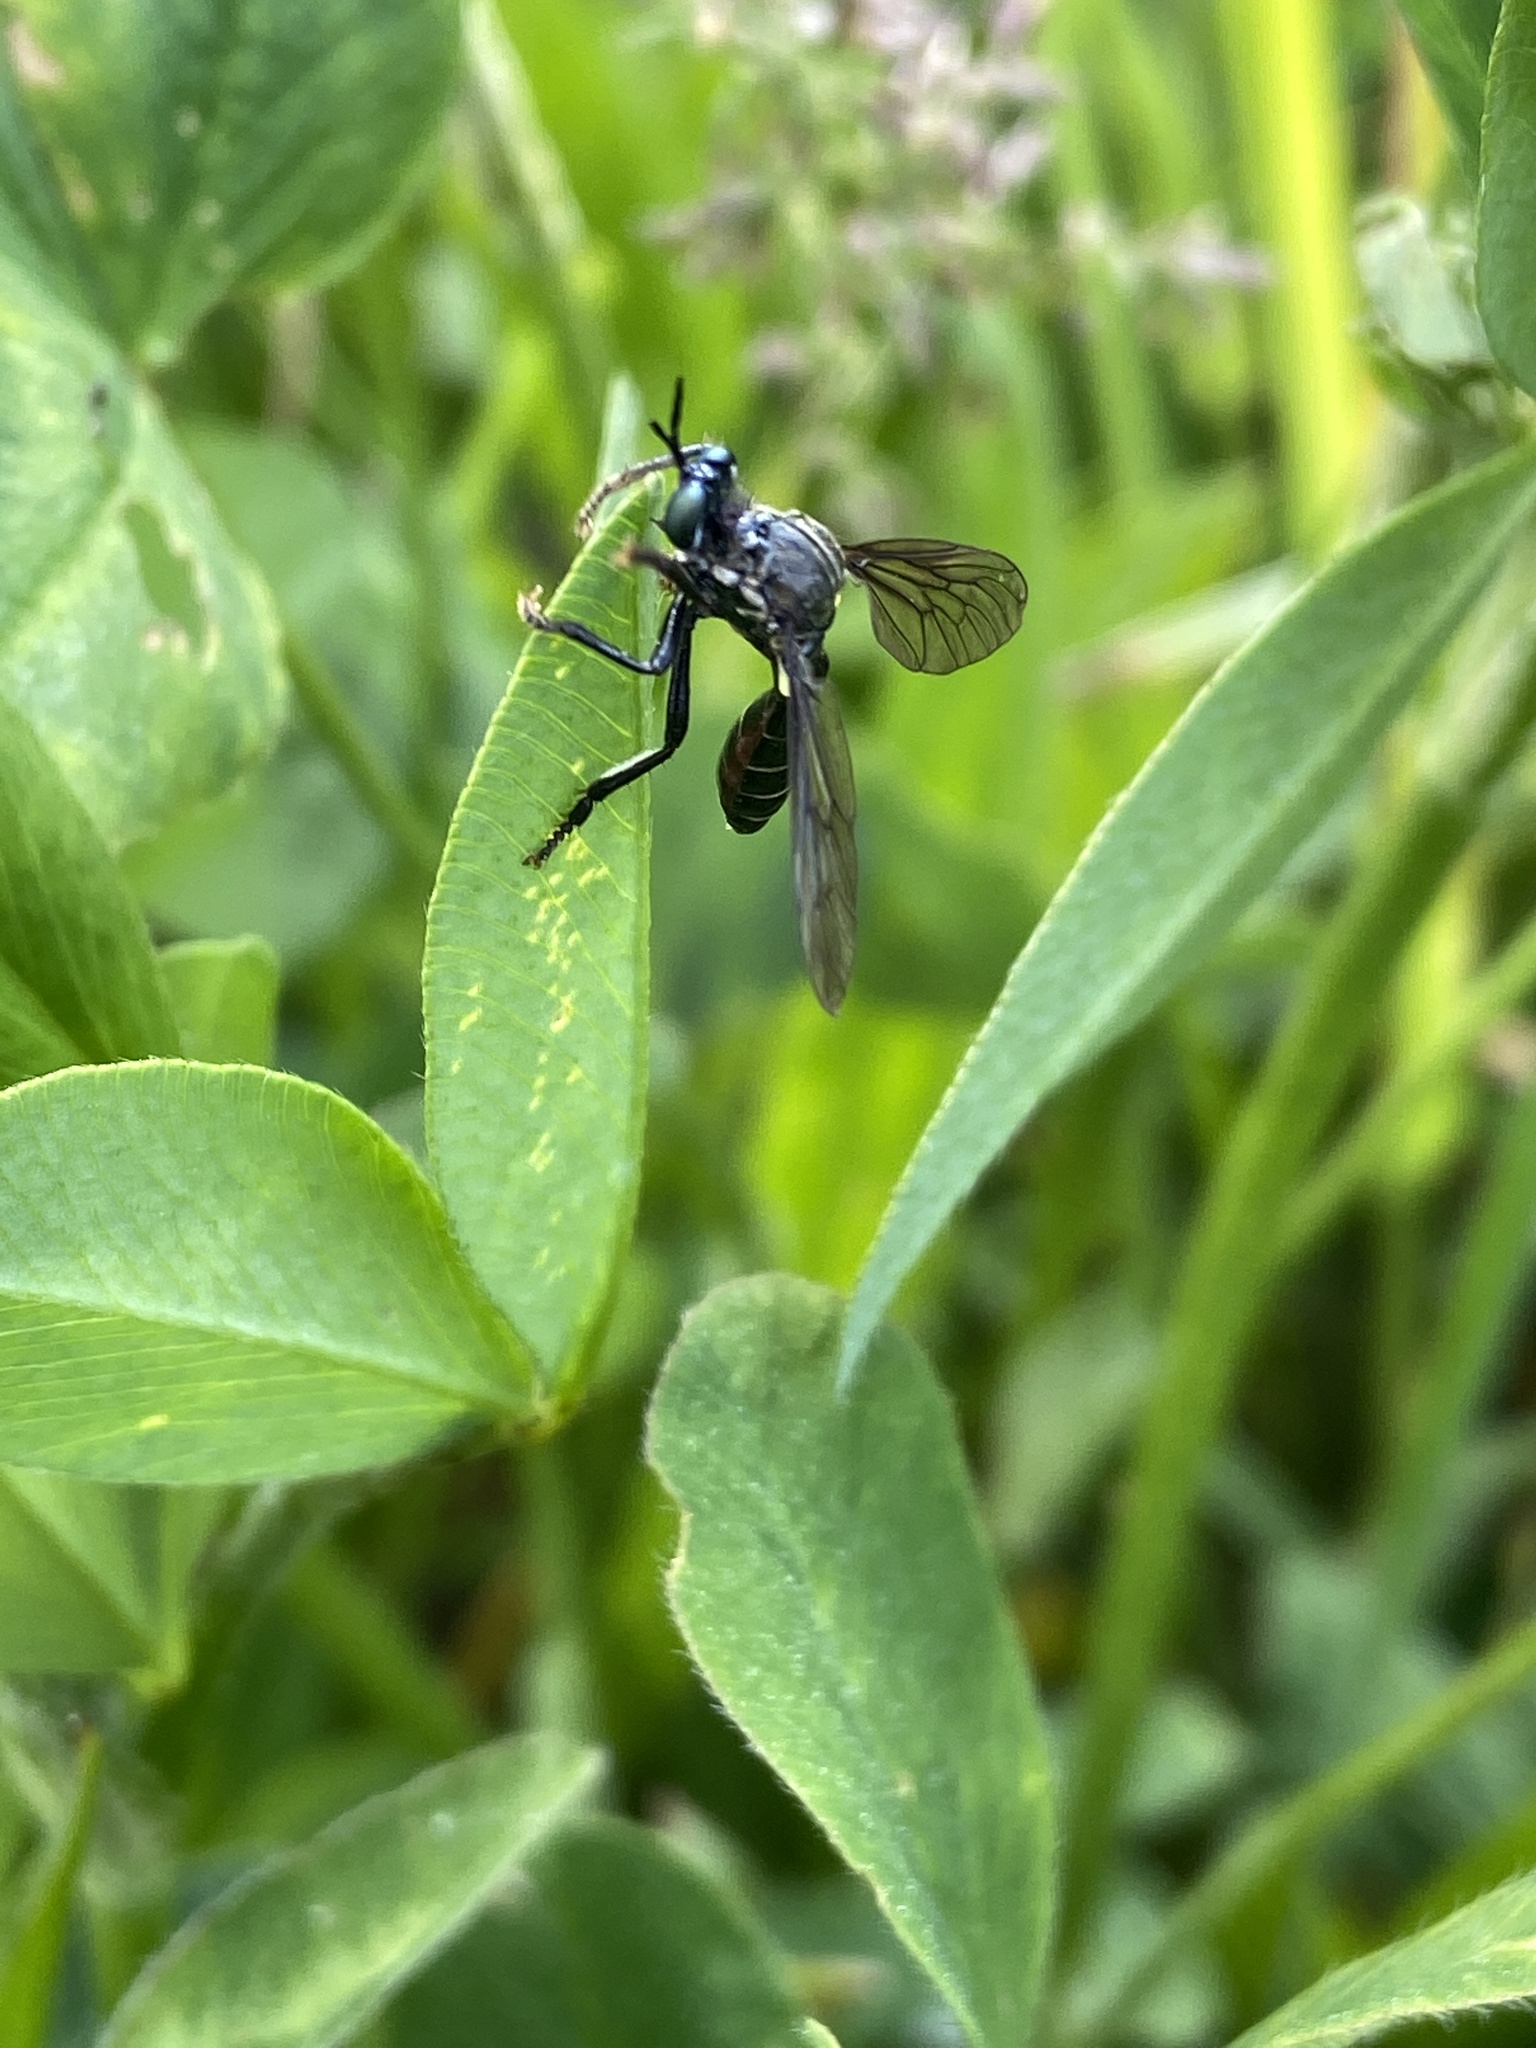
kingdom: Animalia
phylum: Arthropoda
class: Insecta
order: Diptera
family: Asilidae
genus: Dioctria
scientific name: Dioctria atricapilla
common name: Violet black-legged
